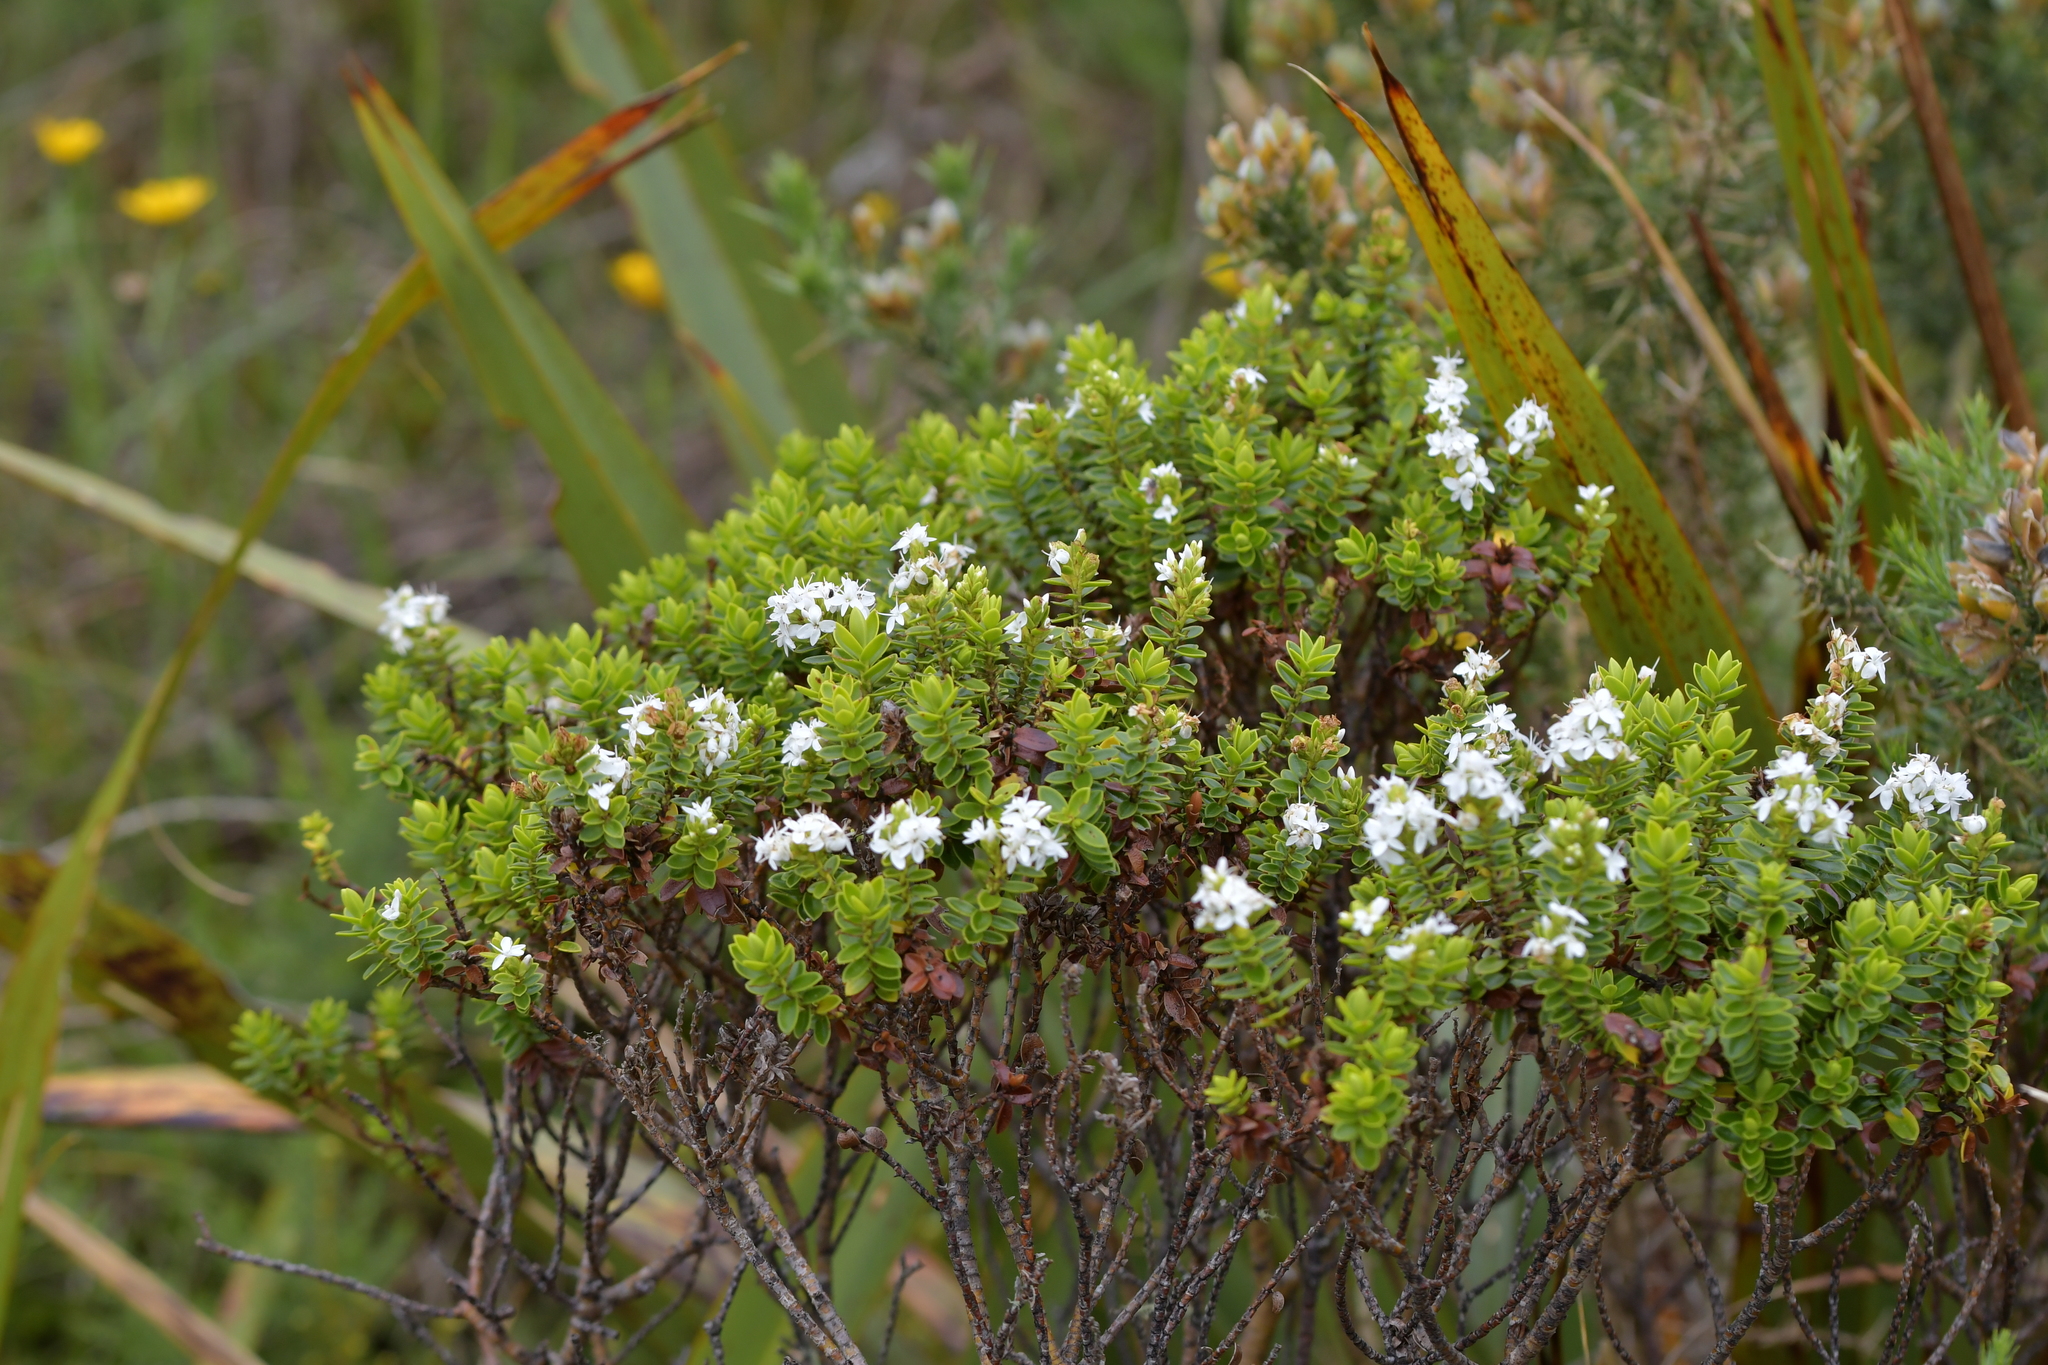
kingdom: Plantae
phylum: Tracheophyta
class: Magnoliopsida
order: Lamiales
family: Plantaginaceae
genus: Veronica
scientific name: Veronica odora
